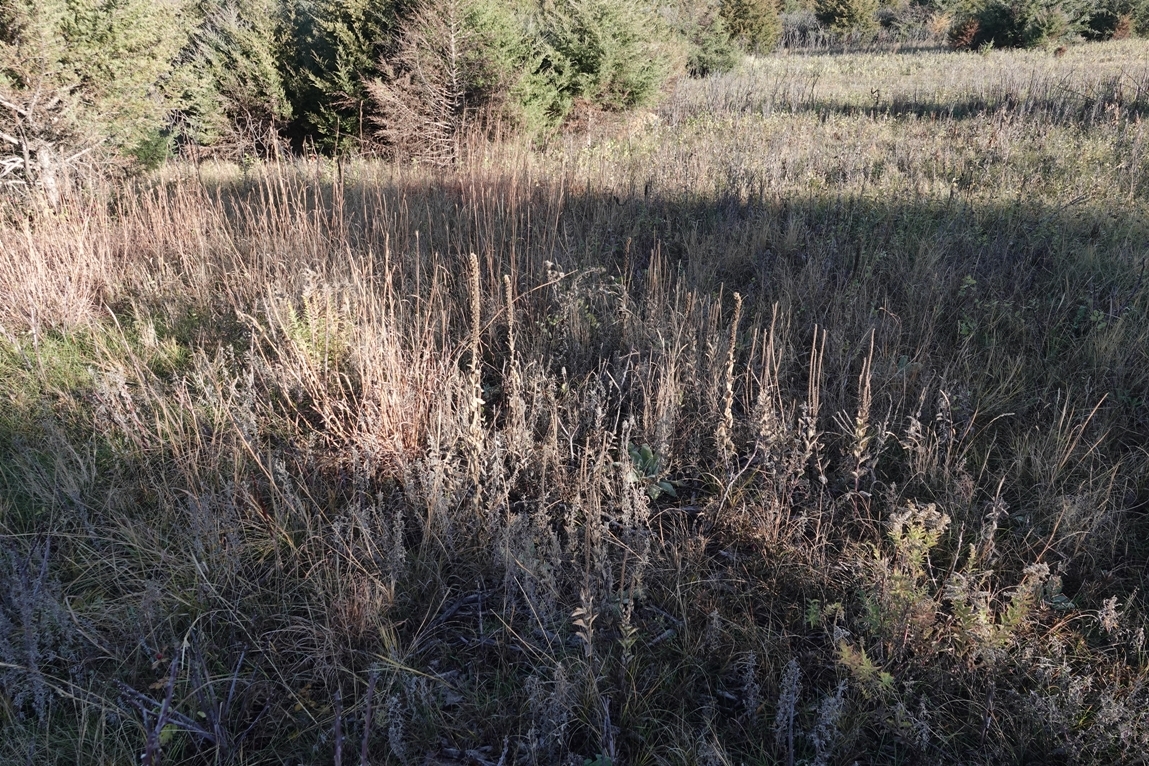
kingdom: Plantae
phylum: Tracheophyta
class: Magnoliopsida
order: Lamiales
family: Scrophulariaceae
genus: Verbascum
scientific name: Verbascum thapsus
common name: Common mullein
